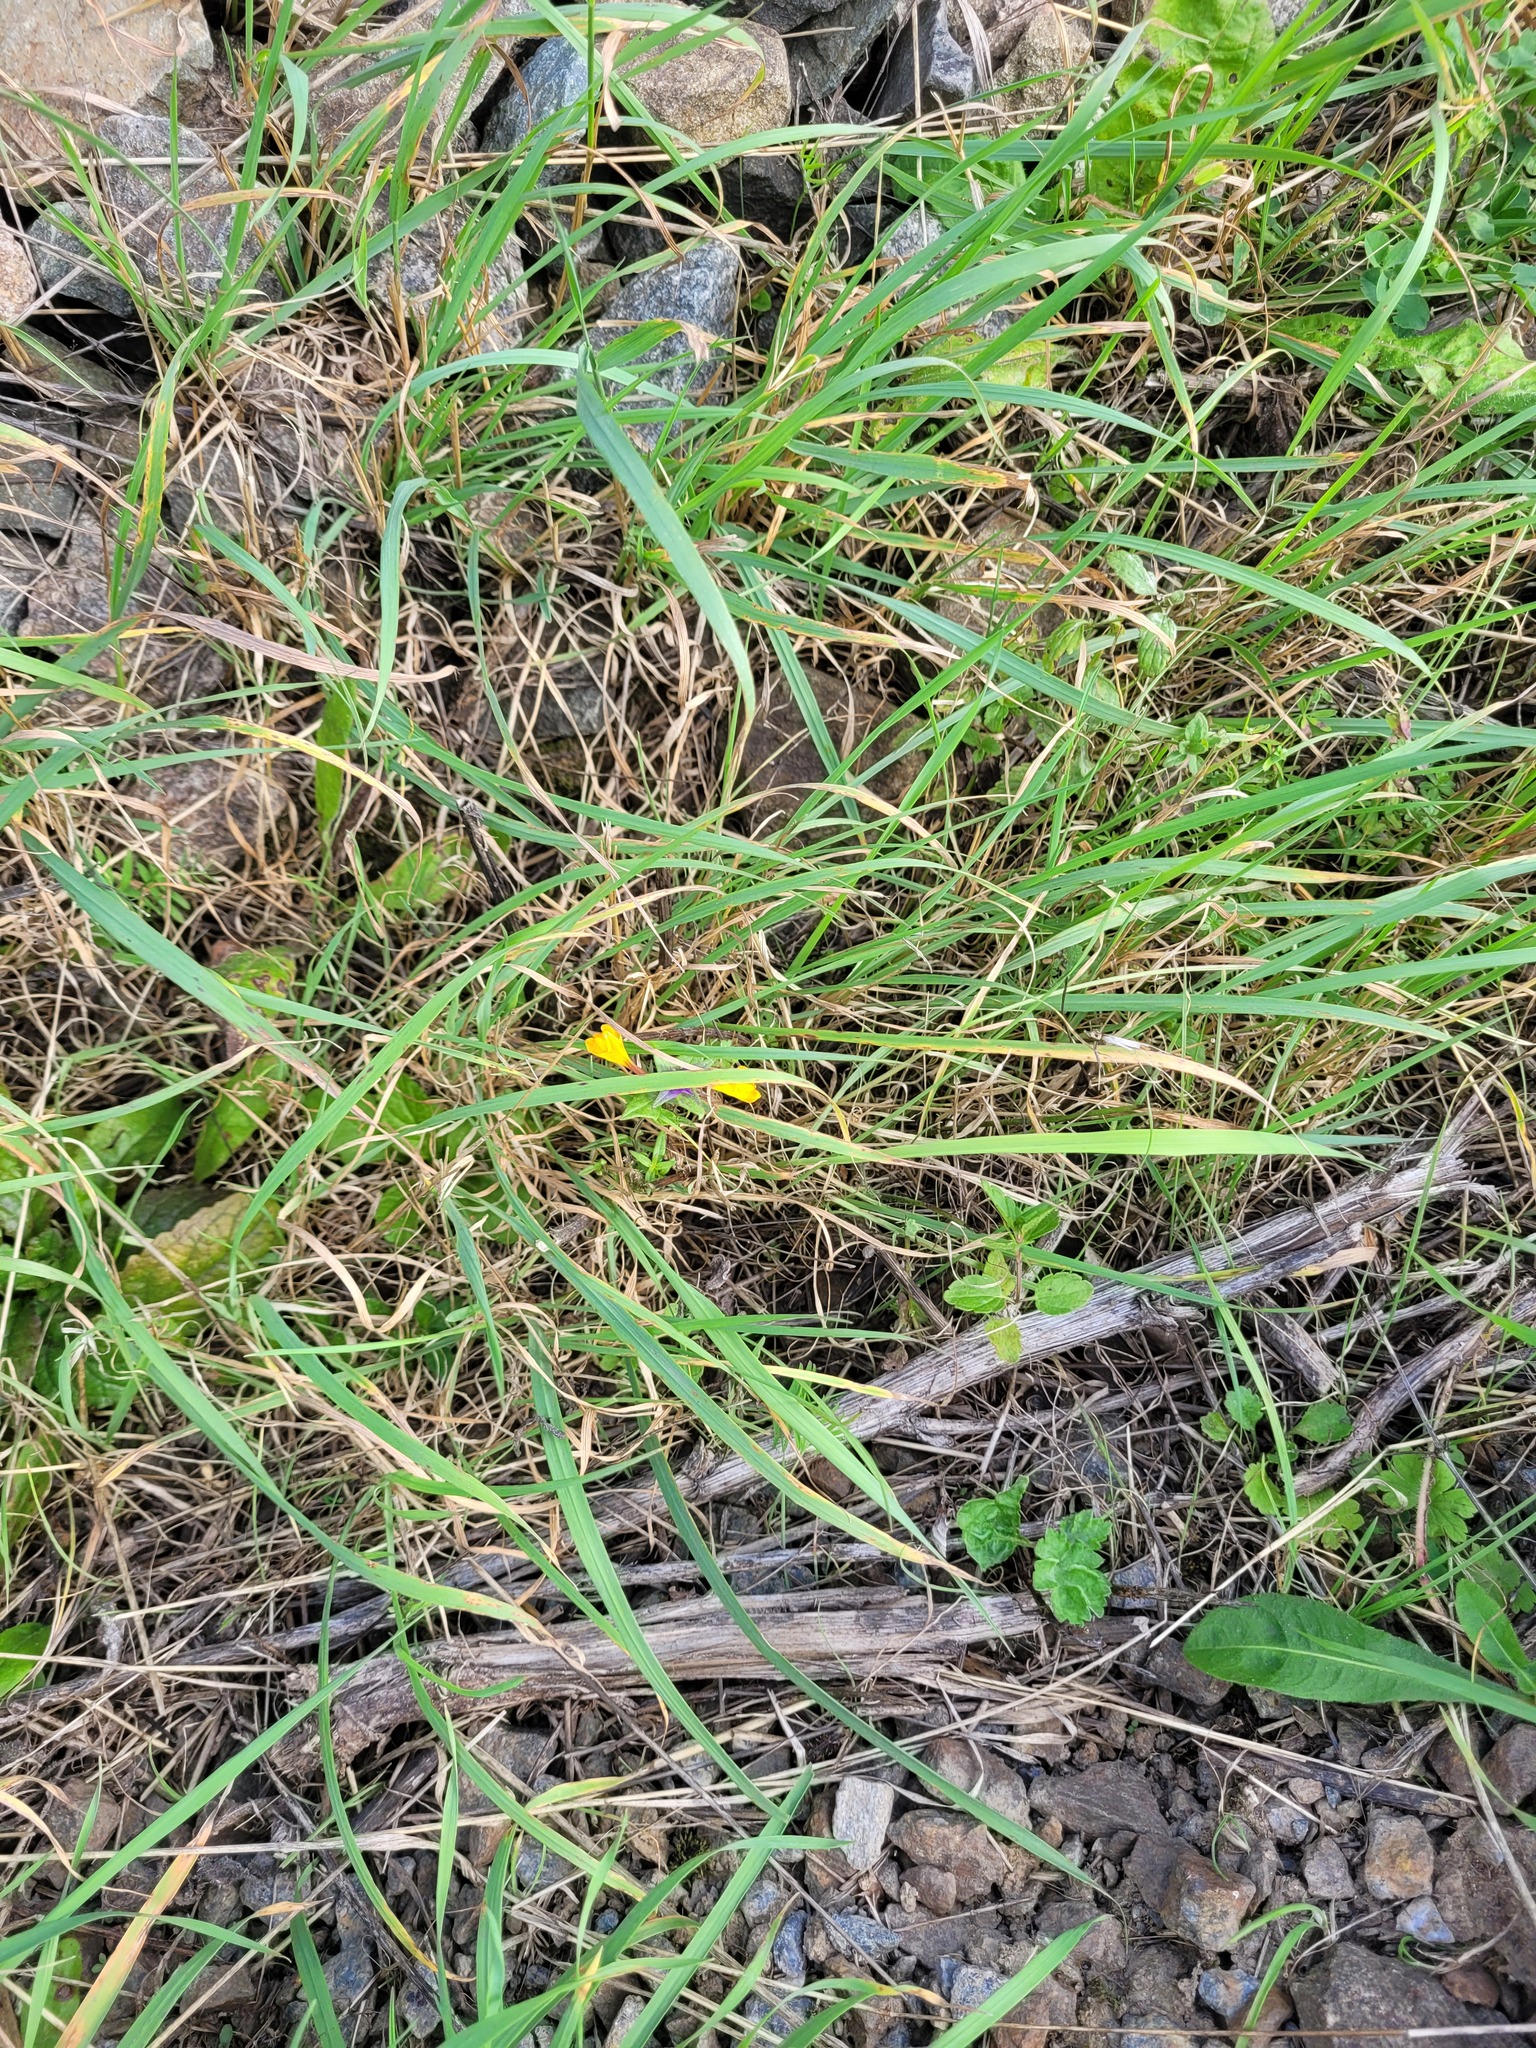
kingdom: Plantae
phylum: Tracheophyta
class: Magnoliopsida
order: Lamiales
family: Orobanchaceae
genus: Melampyrum
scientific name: Melampyrum nemorosum
